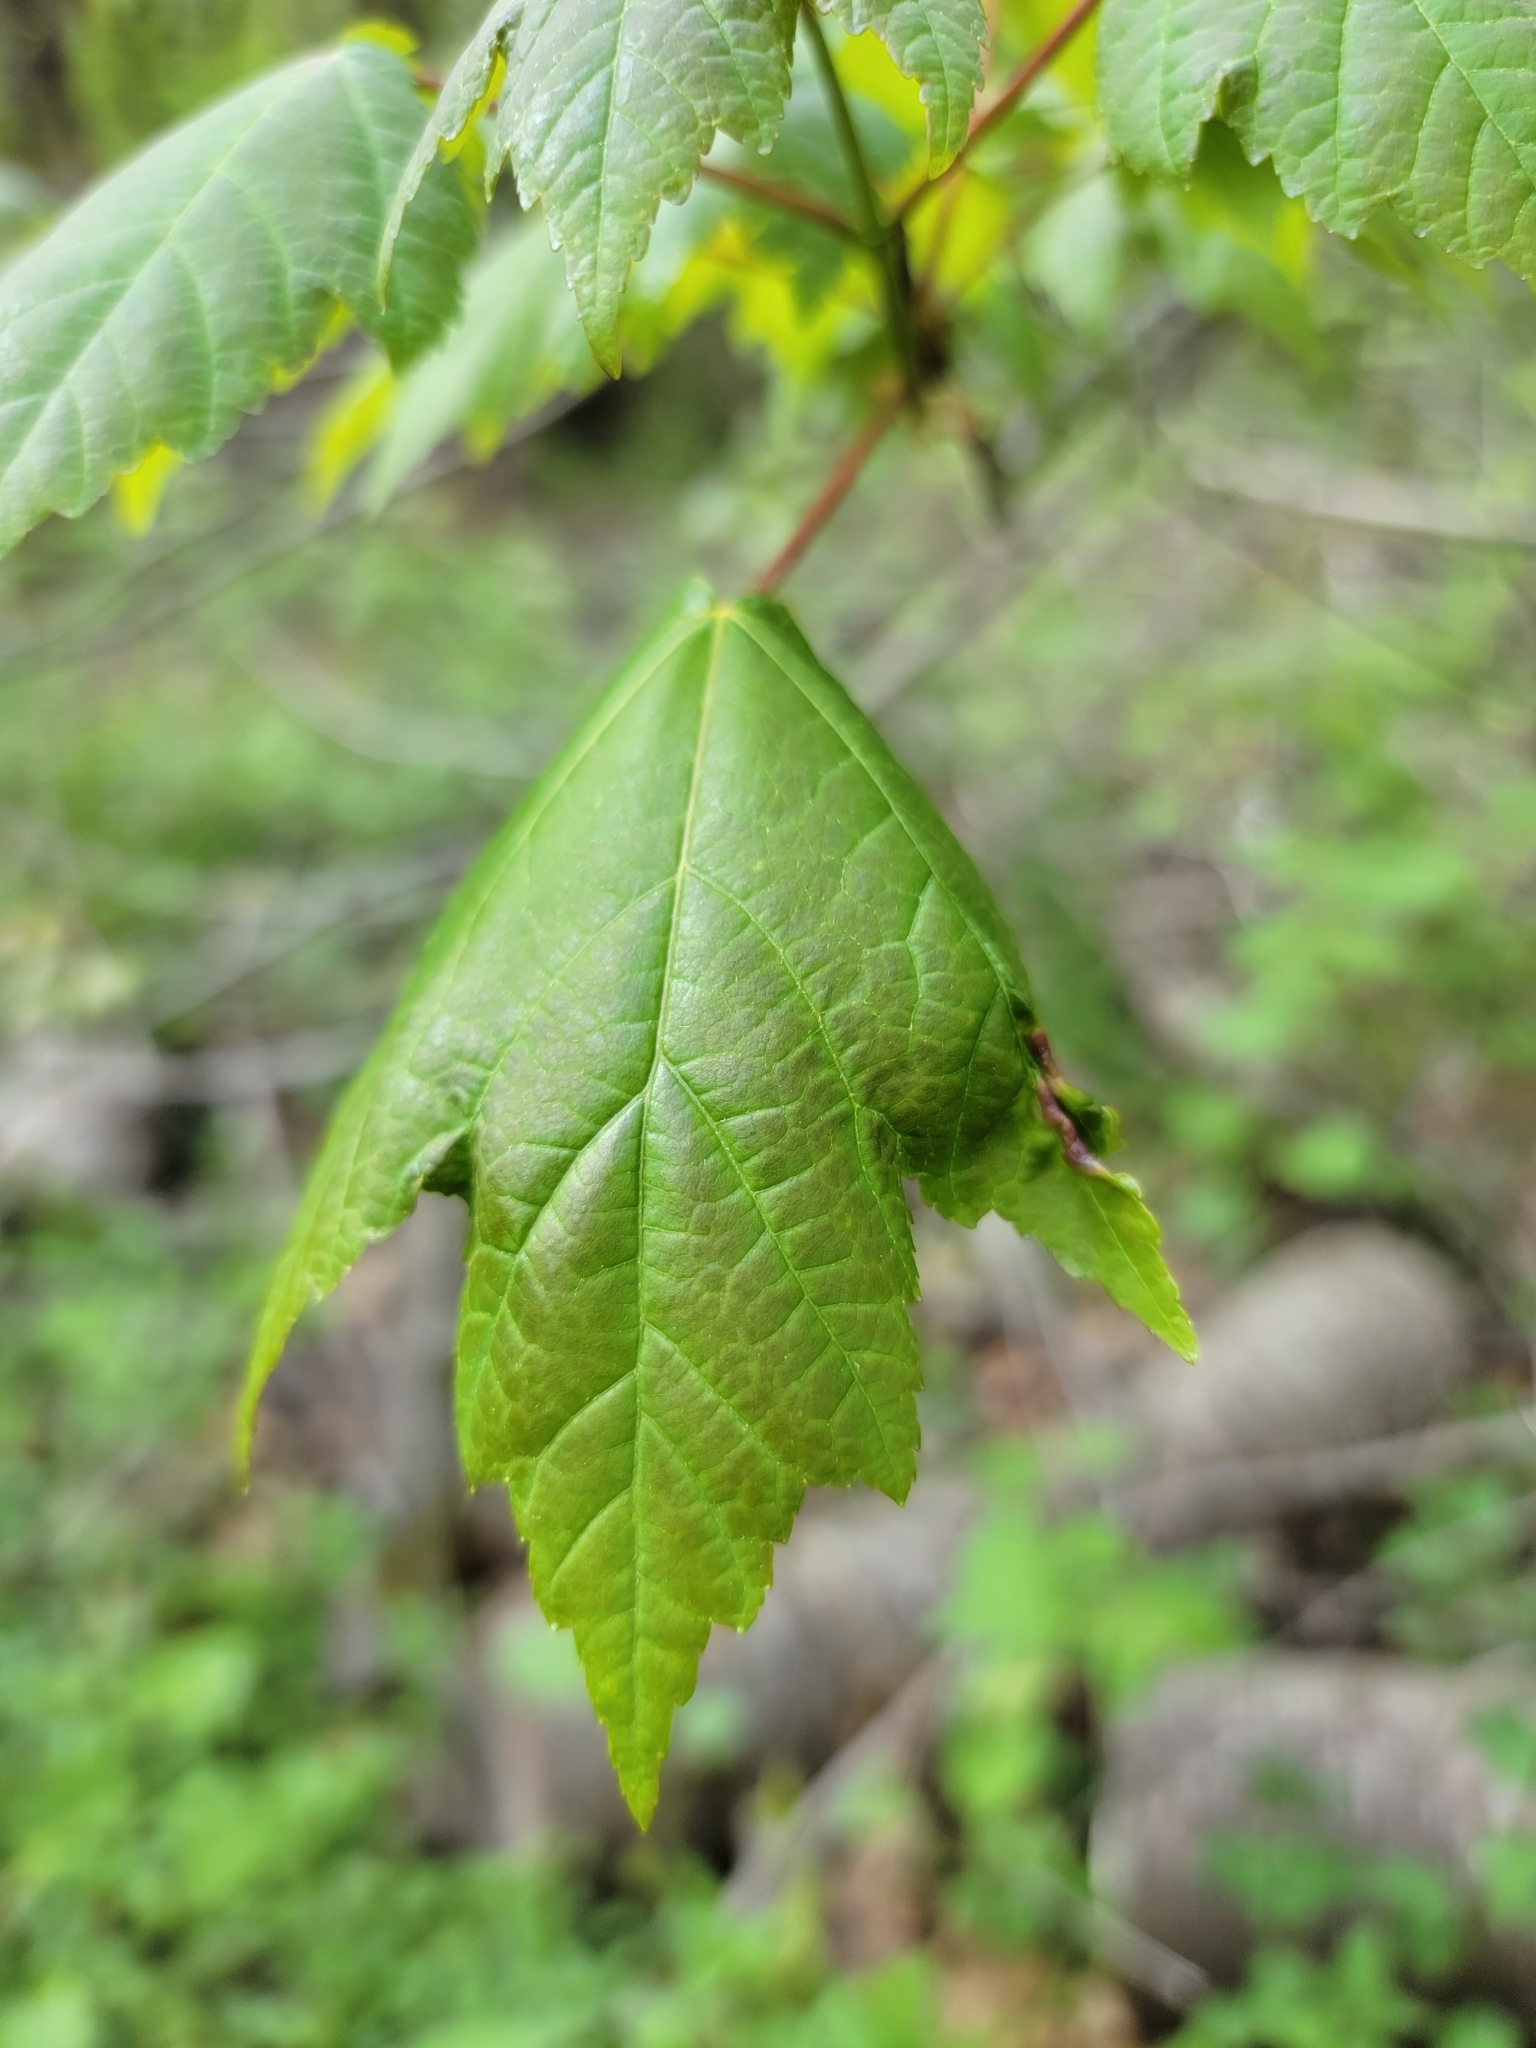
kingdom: Plantae
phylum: Tracheophyta
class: Magnoliopsida
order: Sapindales
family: Sapindaceae
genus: Acer
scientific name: Acer rubrum
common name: Red maple
